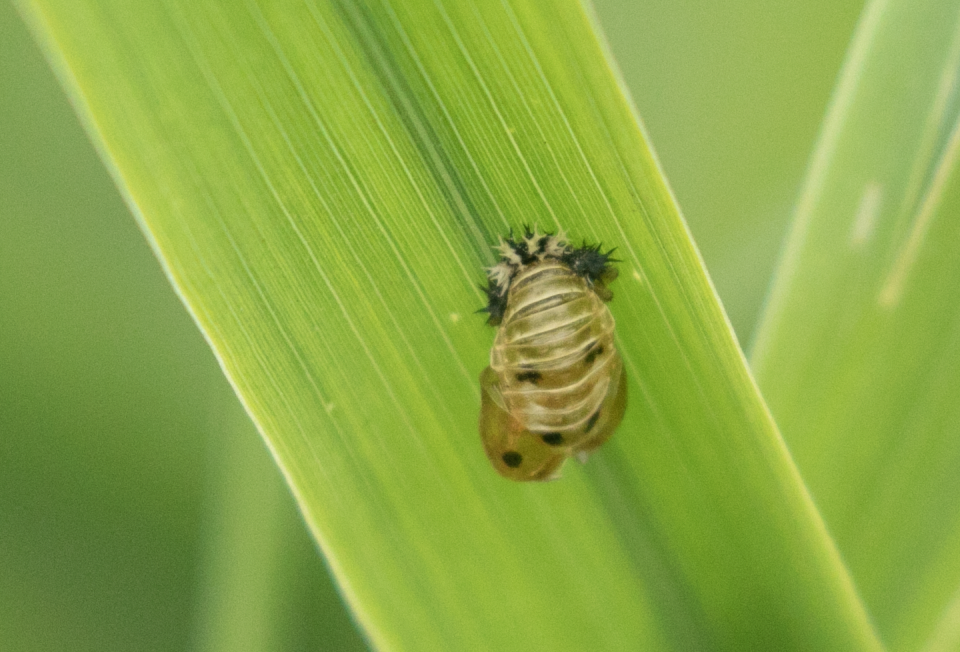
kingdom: Animalia
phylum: Arthropoda
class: Insecta
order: Coleoptera
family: Coccinellidae
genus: Harmonia
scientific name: Harmonia axyridis
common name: Harlequin ladybird
